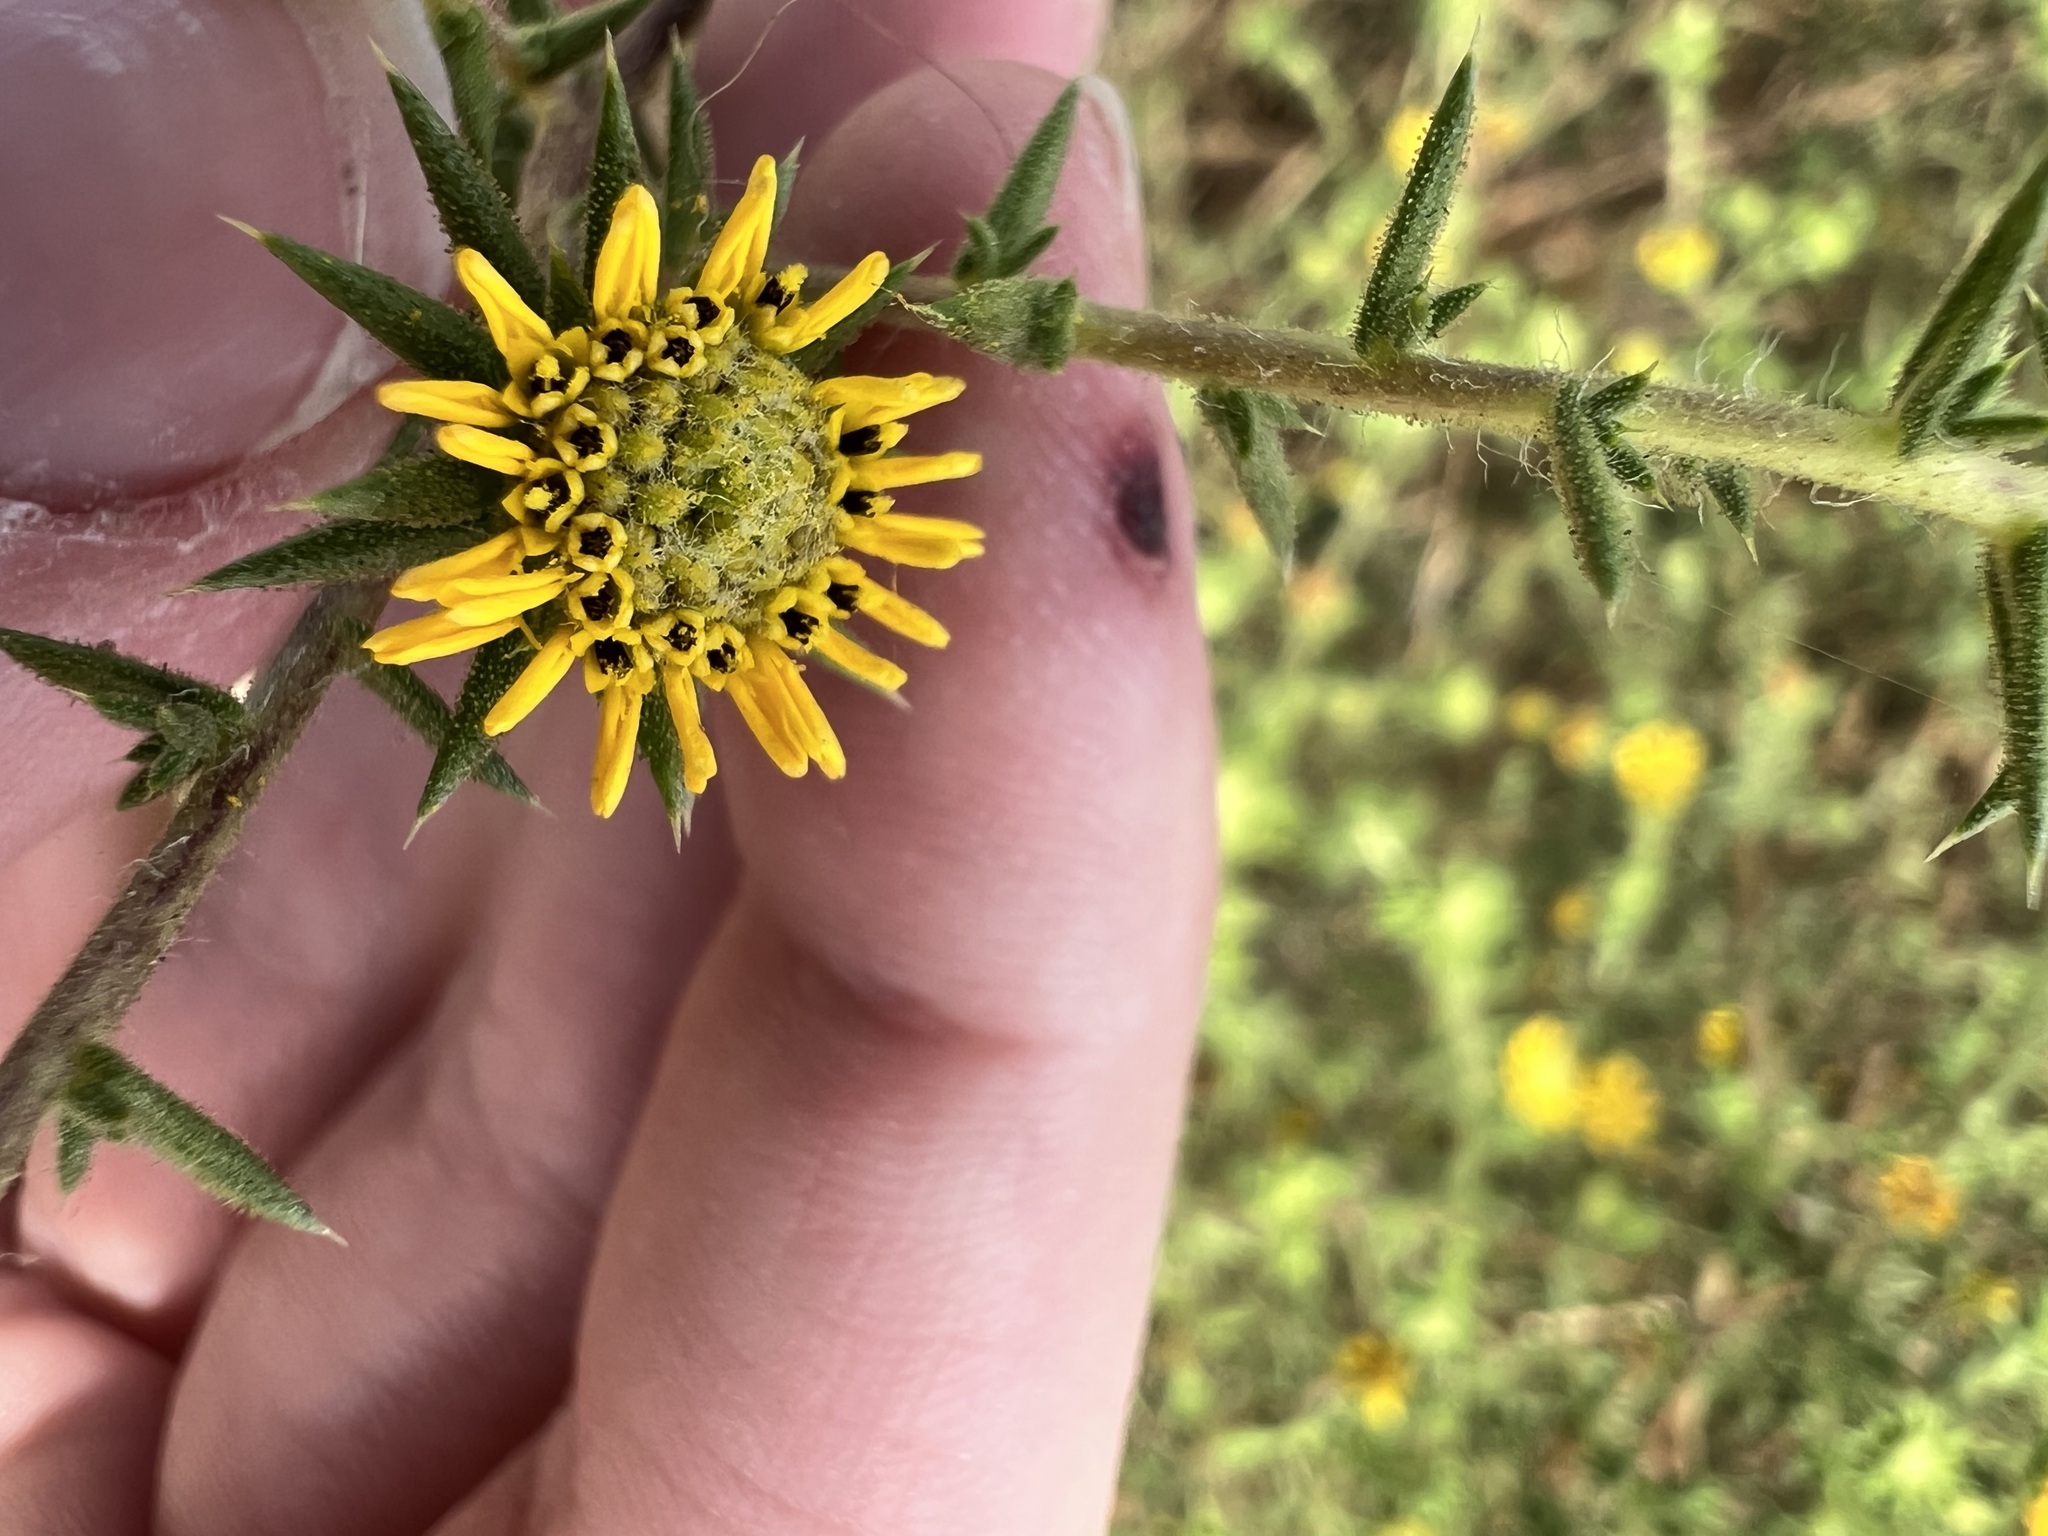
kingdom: Plantae
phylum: Tracheophyta
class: Magnoliopsida
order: Asterales
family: Asteraceae
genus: Centromadia
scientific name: Centromadia parryi
